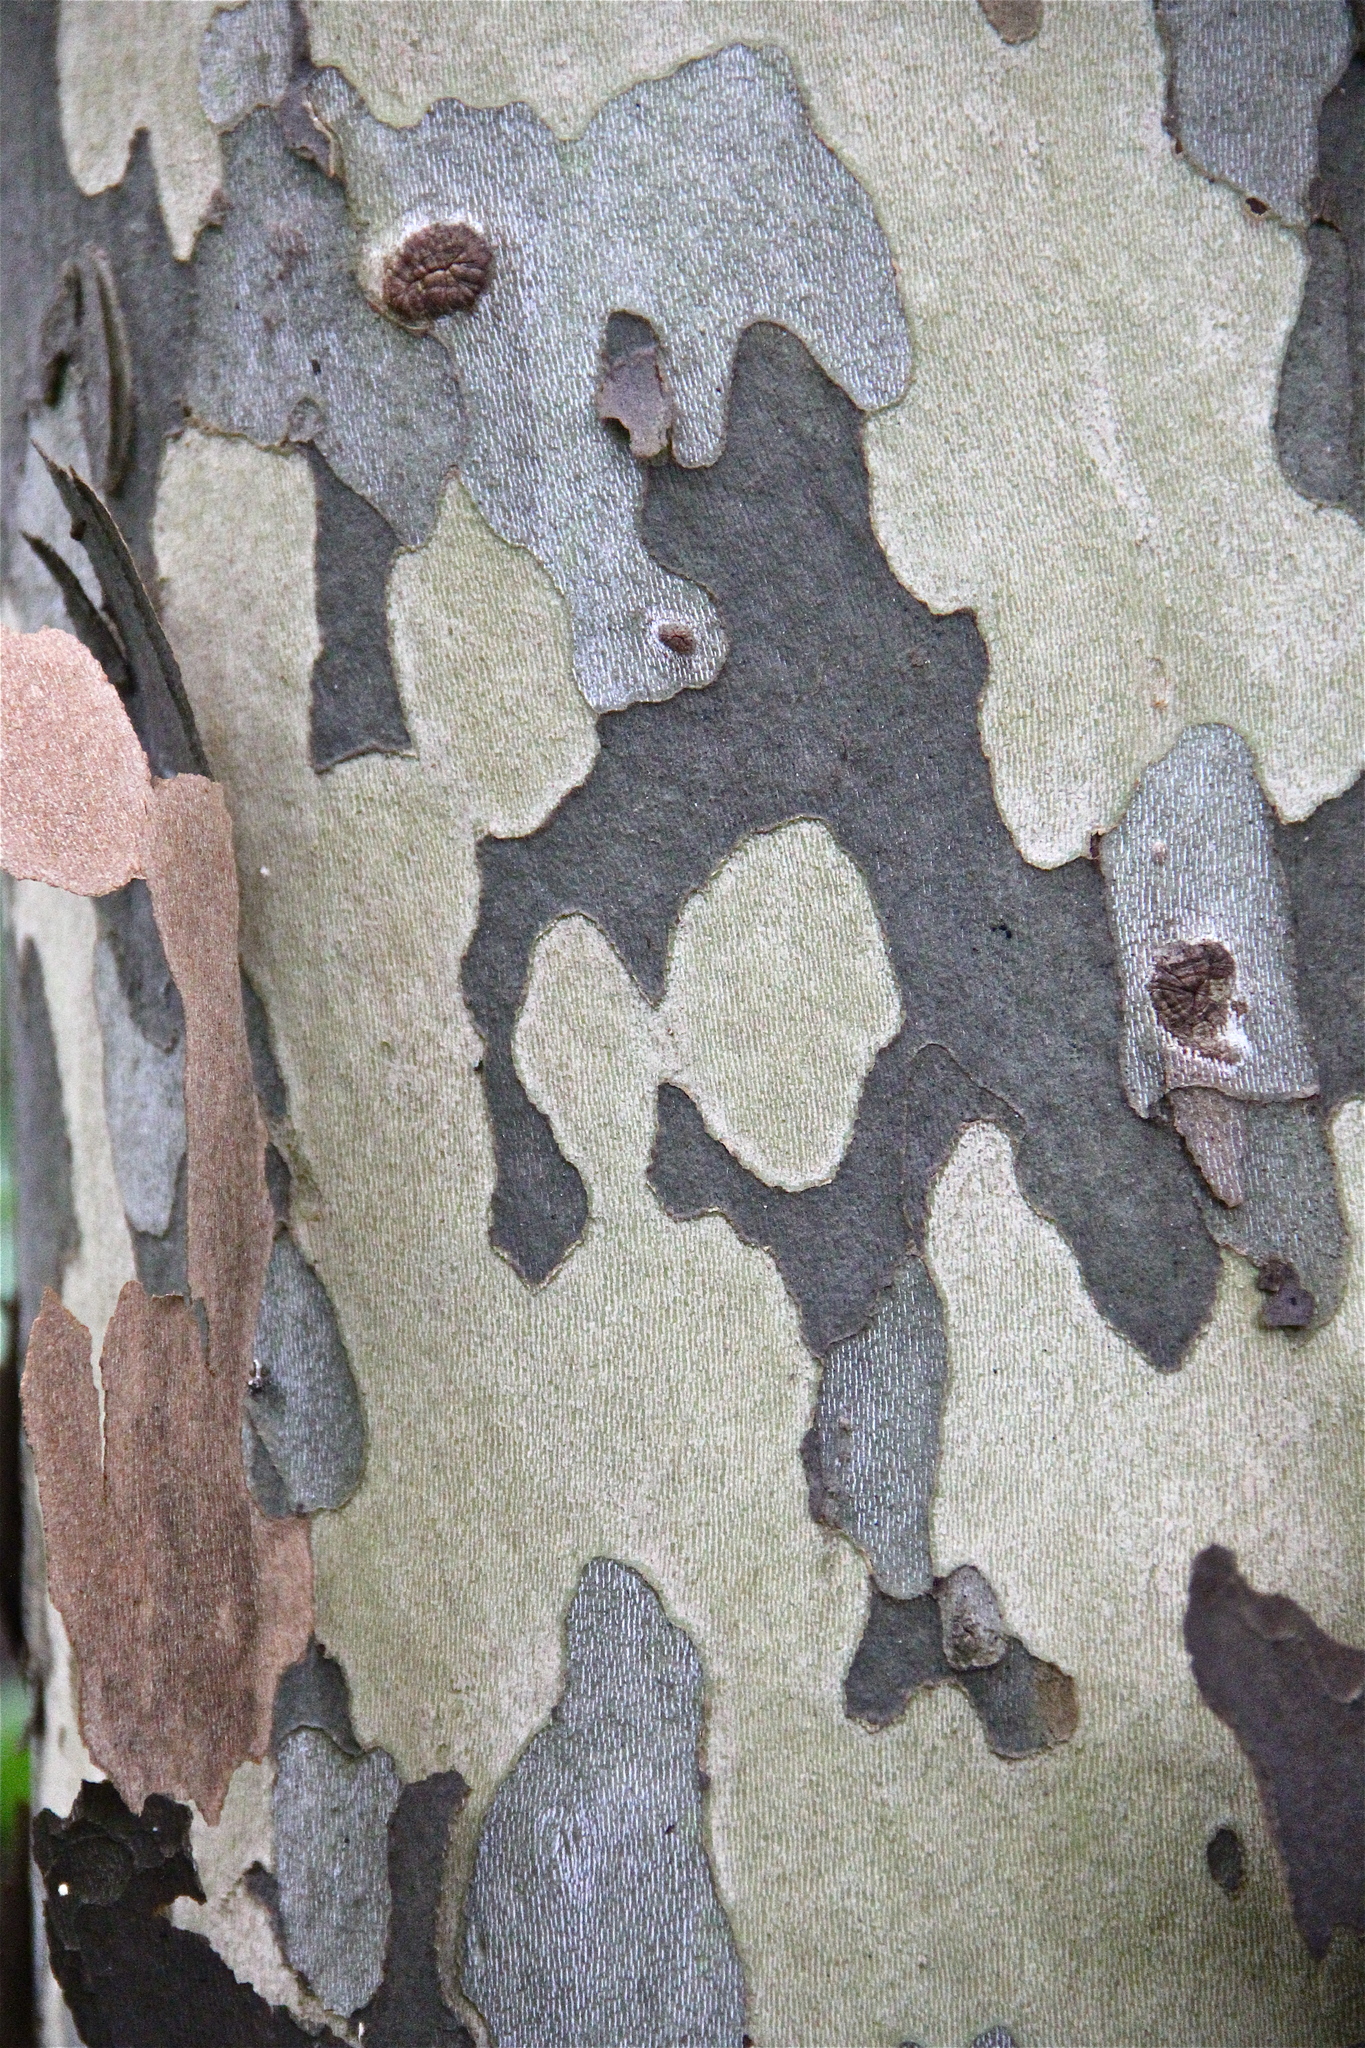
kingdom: Plantae
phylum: Tracheophyta
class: Magnoliopsida
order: Proteales
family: Platanaceae
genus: Platanus
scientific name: Platanus occidentalis
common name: American sycamore
